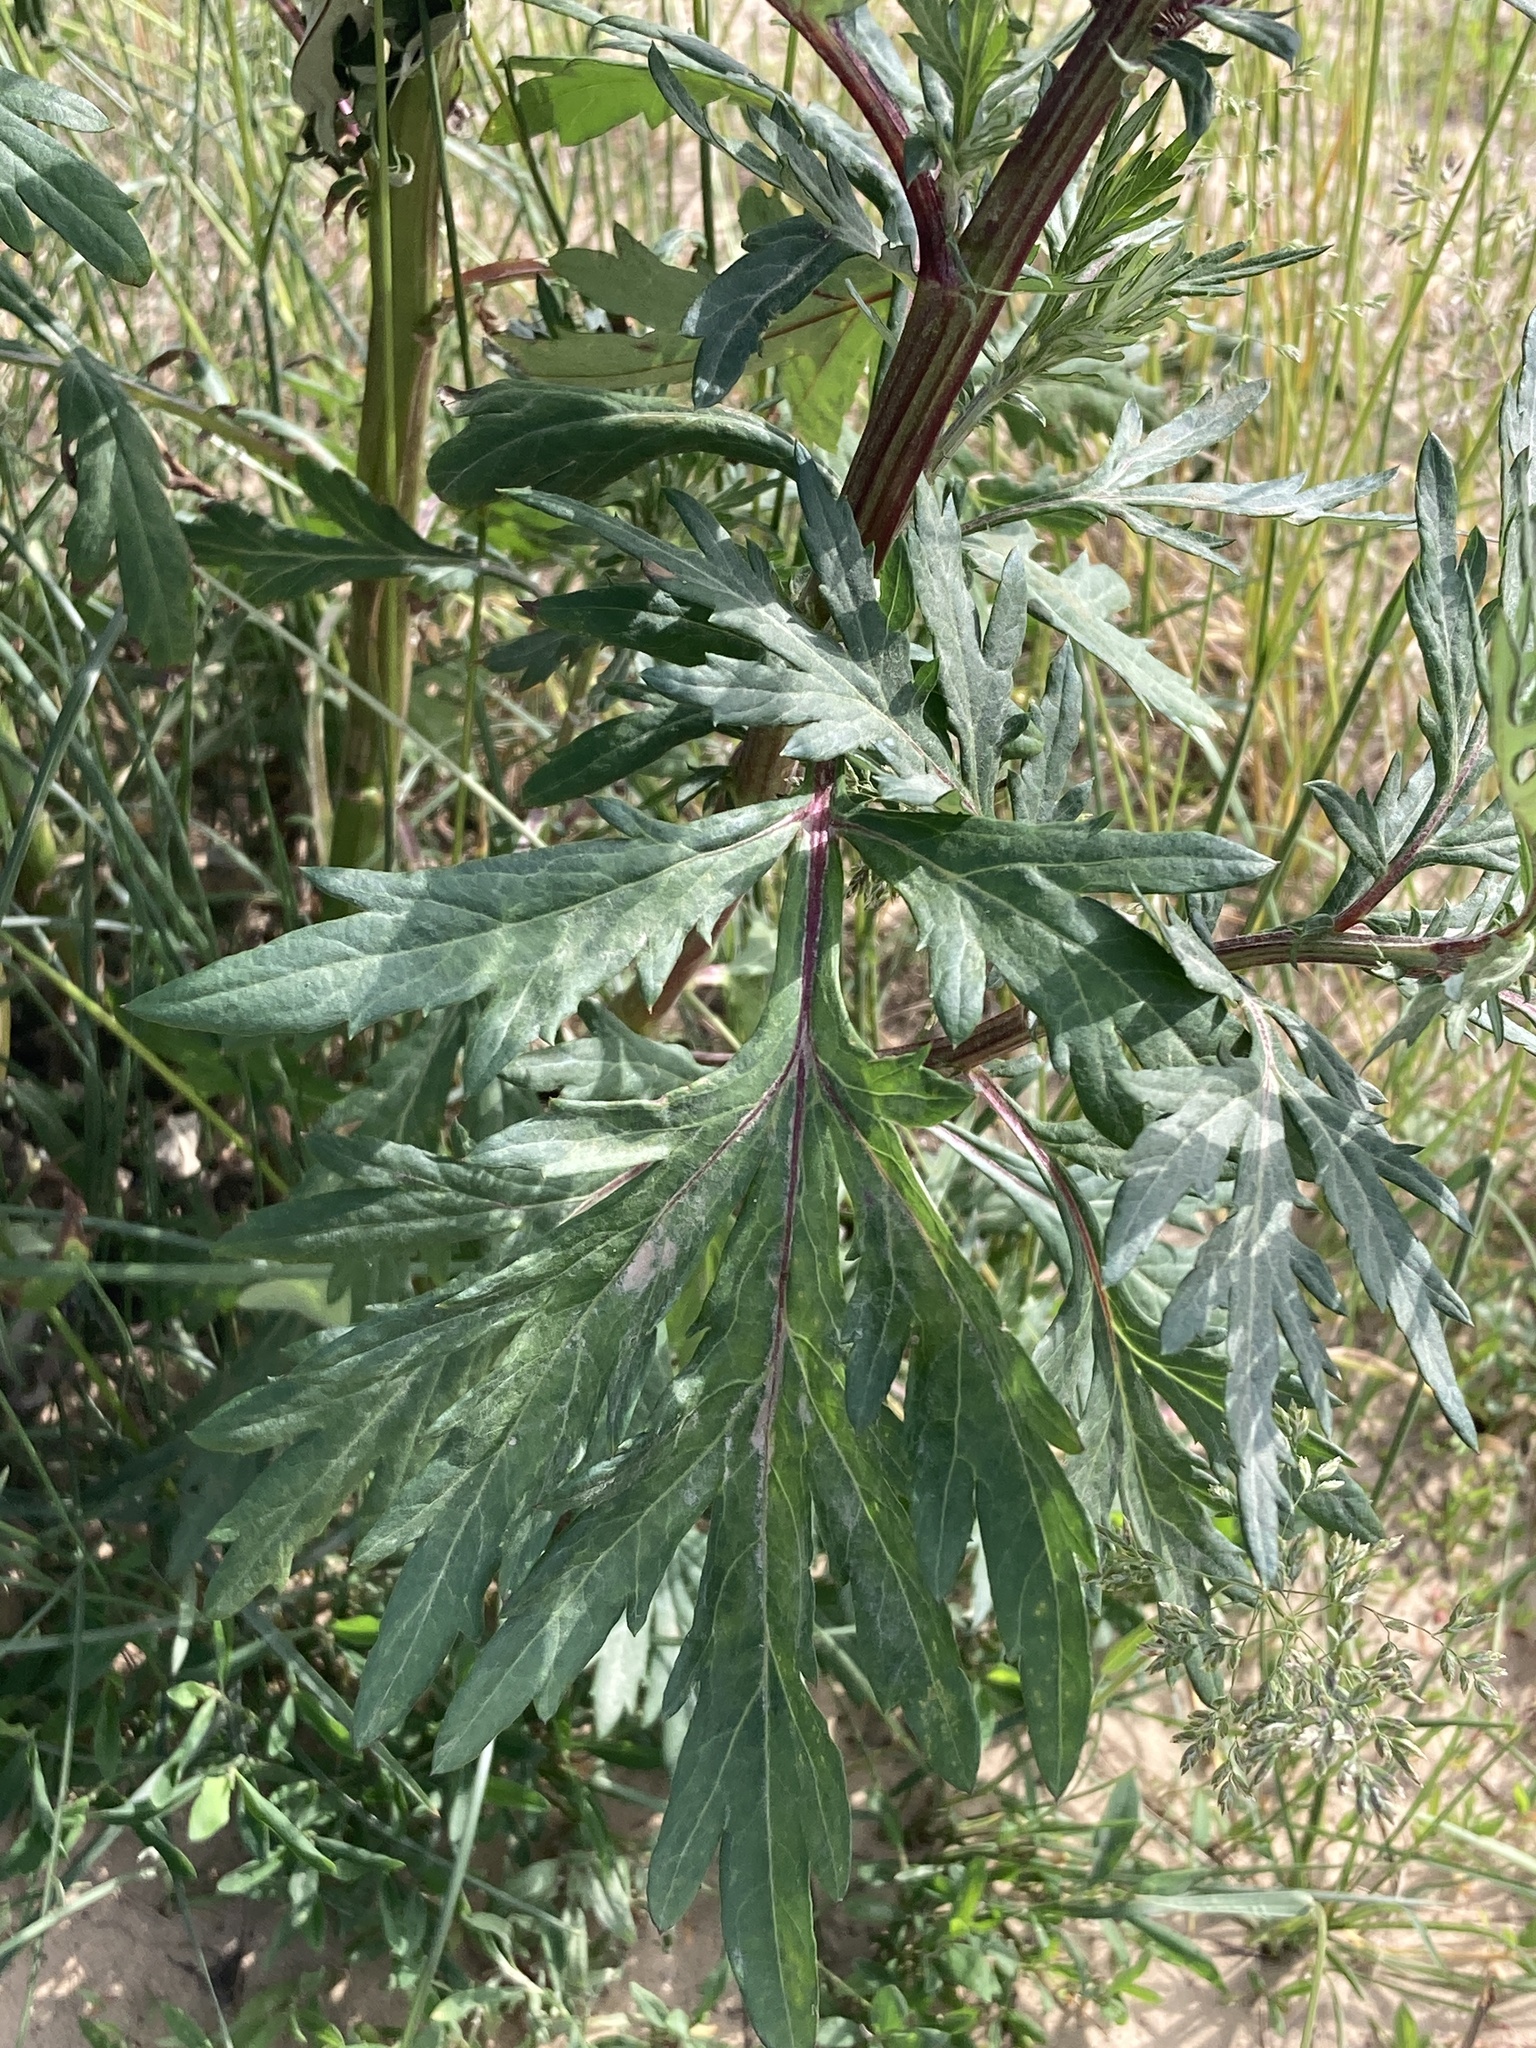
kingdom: Plantae
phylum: Tracheophyta
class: Magnoliopsida
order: Asterales
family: Asteraceae
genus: Artemisia
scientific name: Artemisia vulgaris
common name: Mugwort
